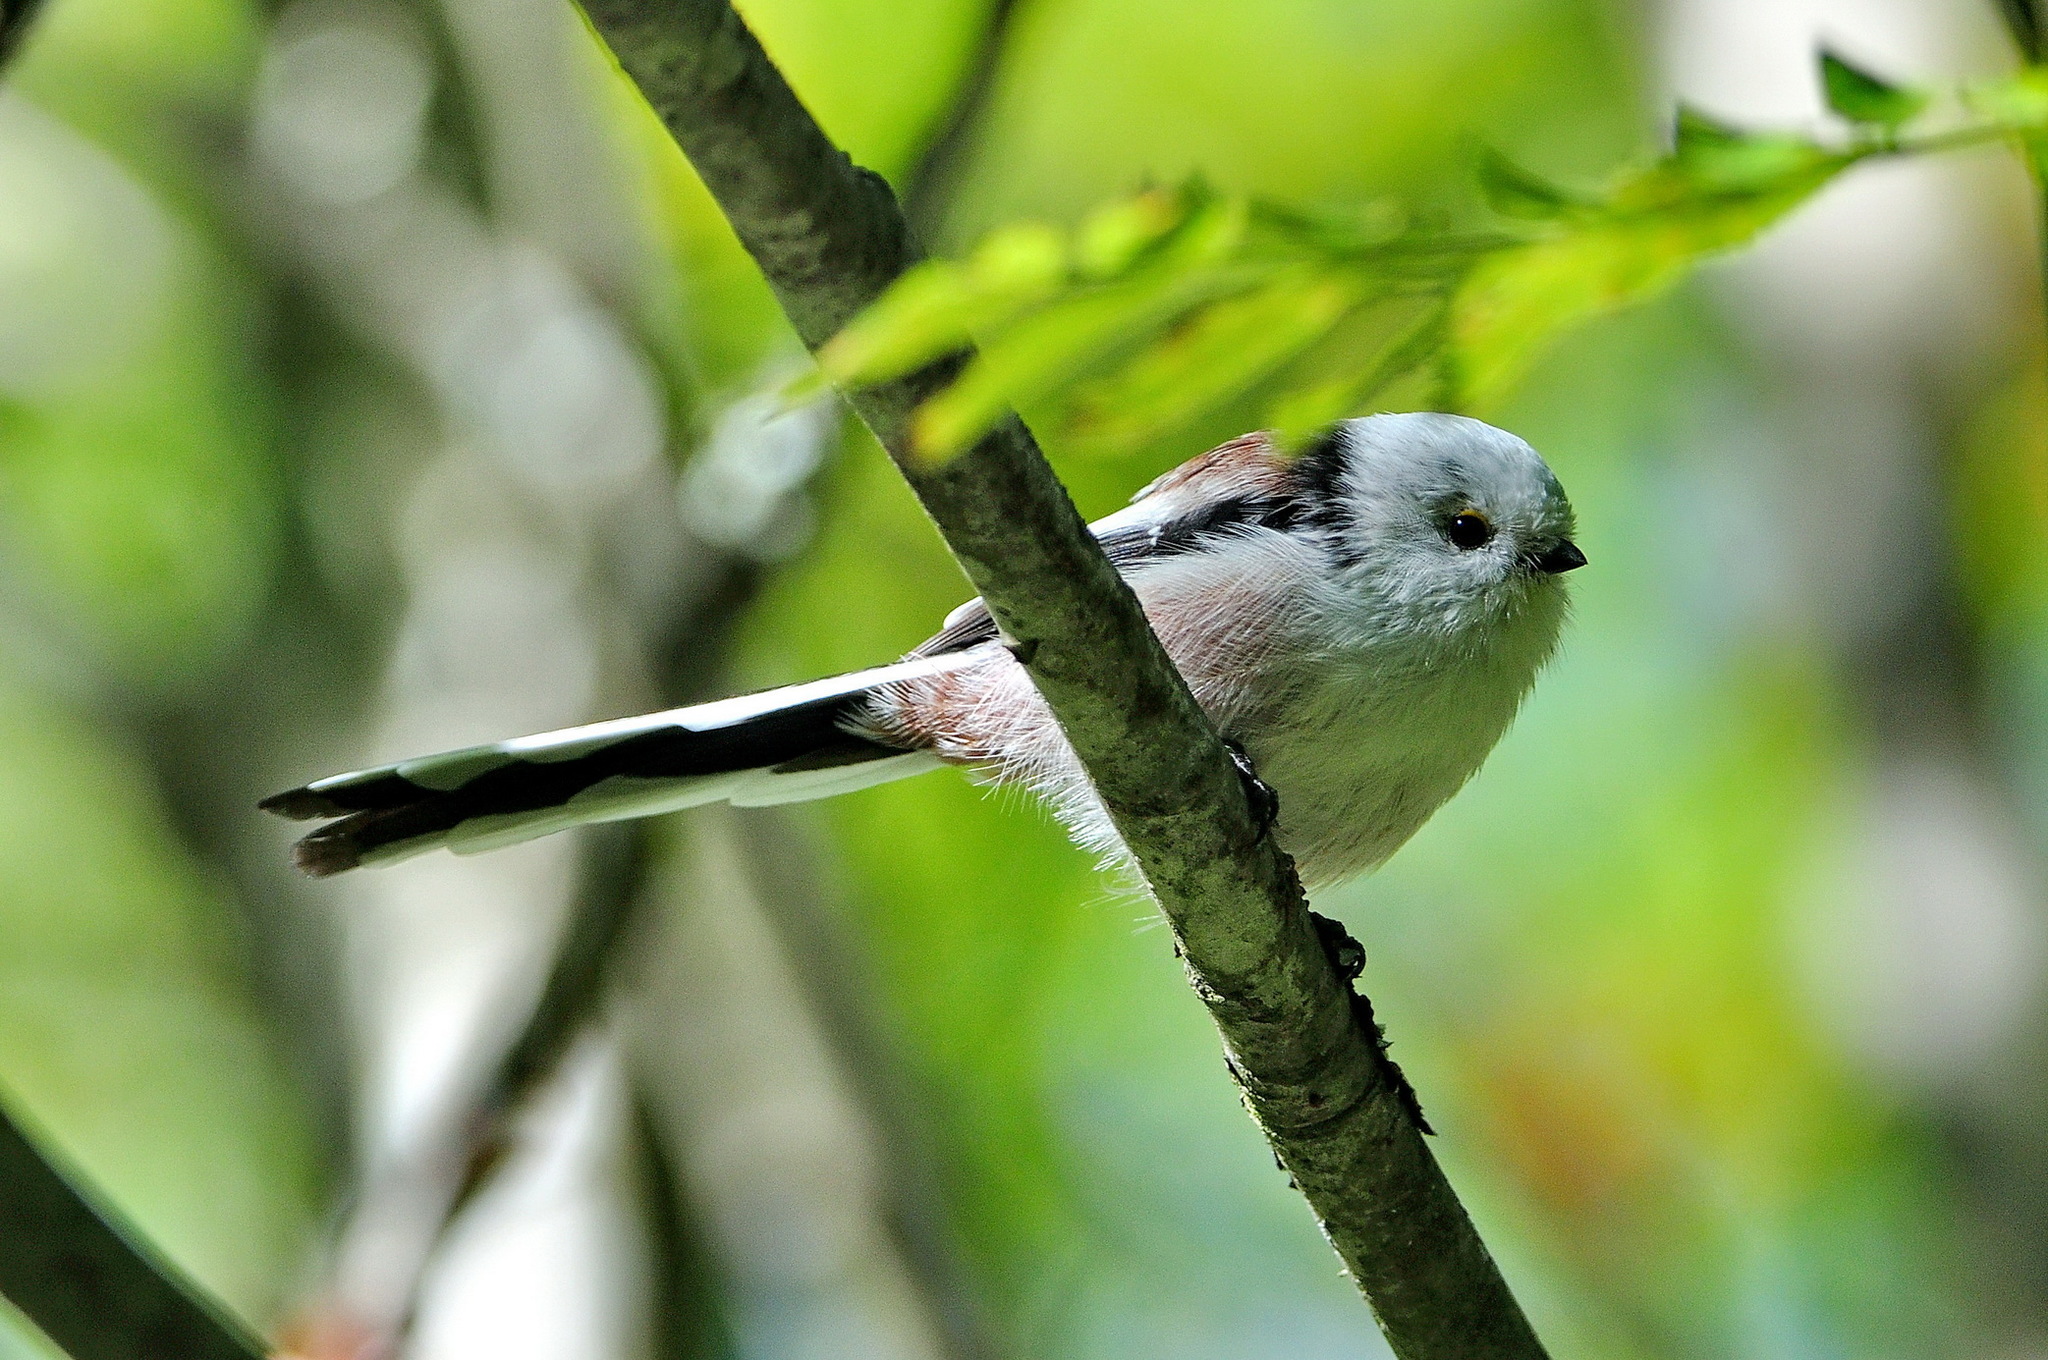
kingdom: Animalia
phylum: Chordata
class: Aves
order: Passeriformes
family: Aegithalidae
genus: Aegithalos
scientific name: Aegithalos caudatus
